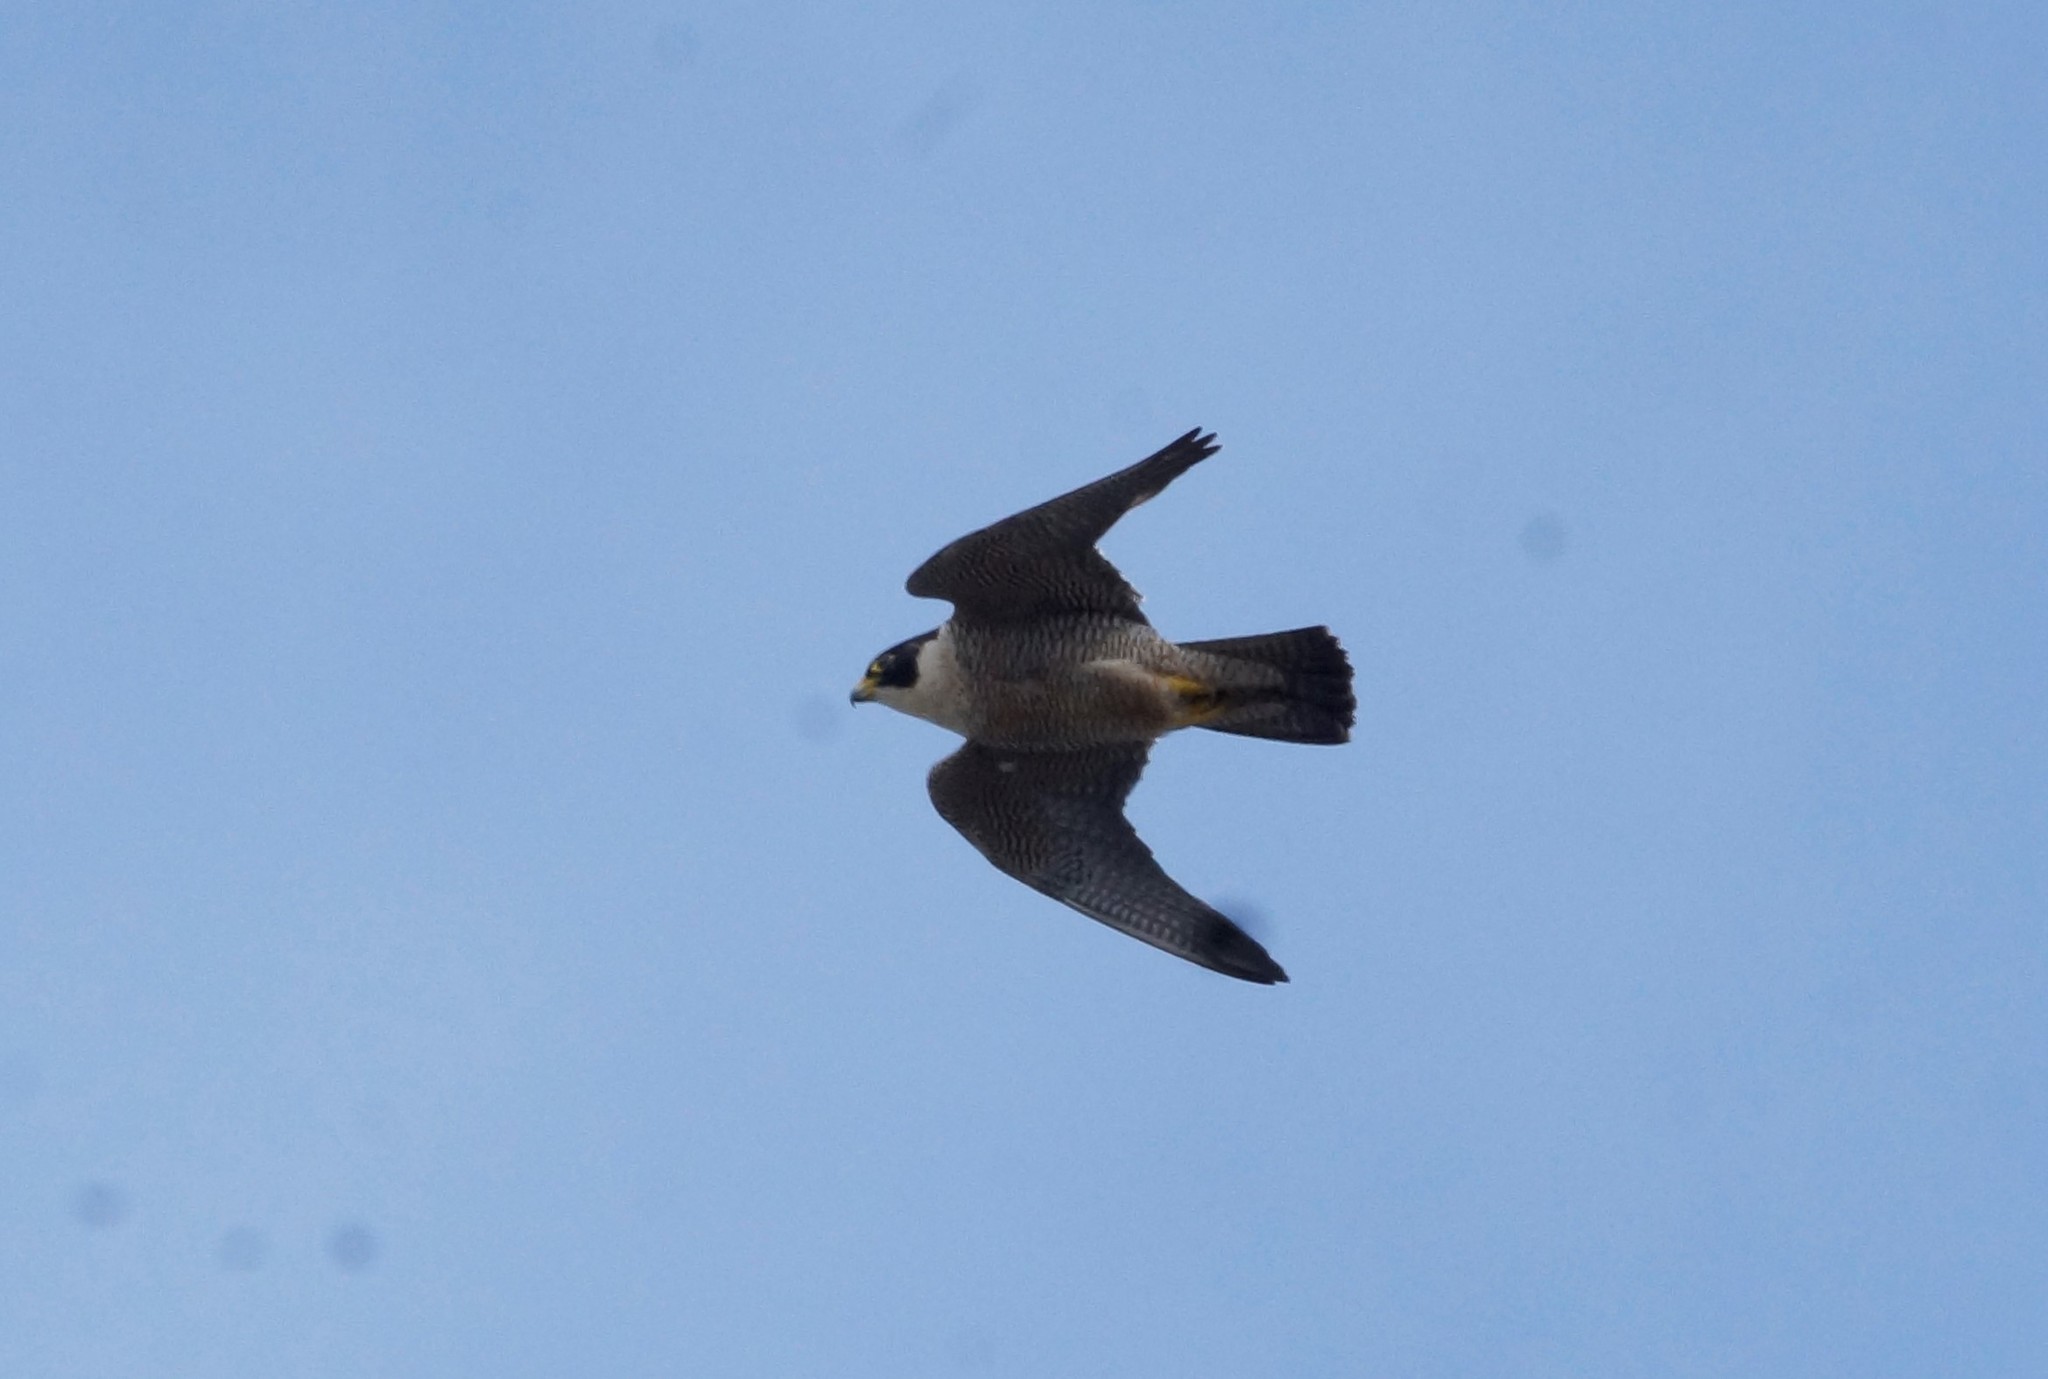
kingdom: Animalia
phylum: Chordata
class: Aves
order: Falconiformes
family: Falconidae
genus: Falco
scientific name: Falco peregrinus
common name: Peregrine falcon
